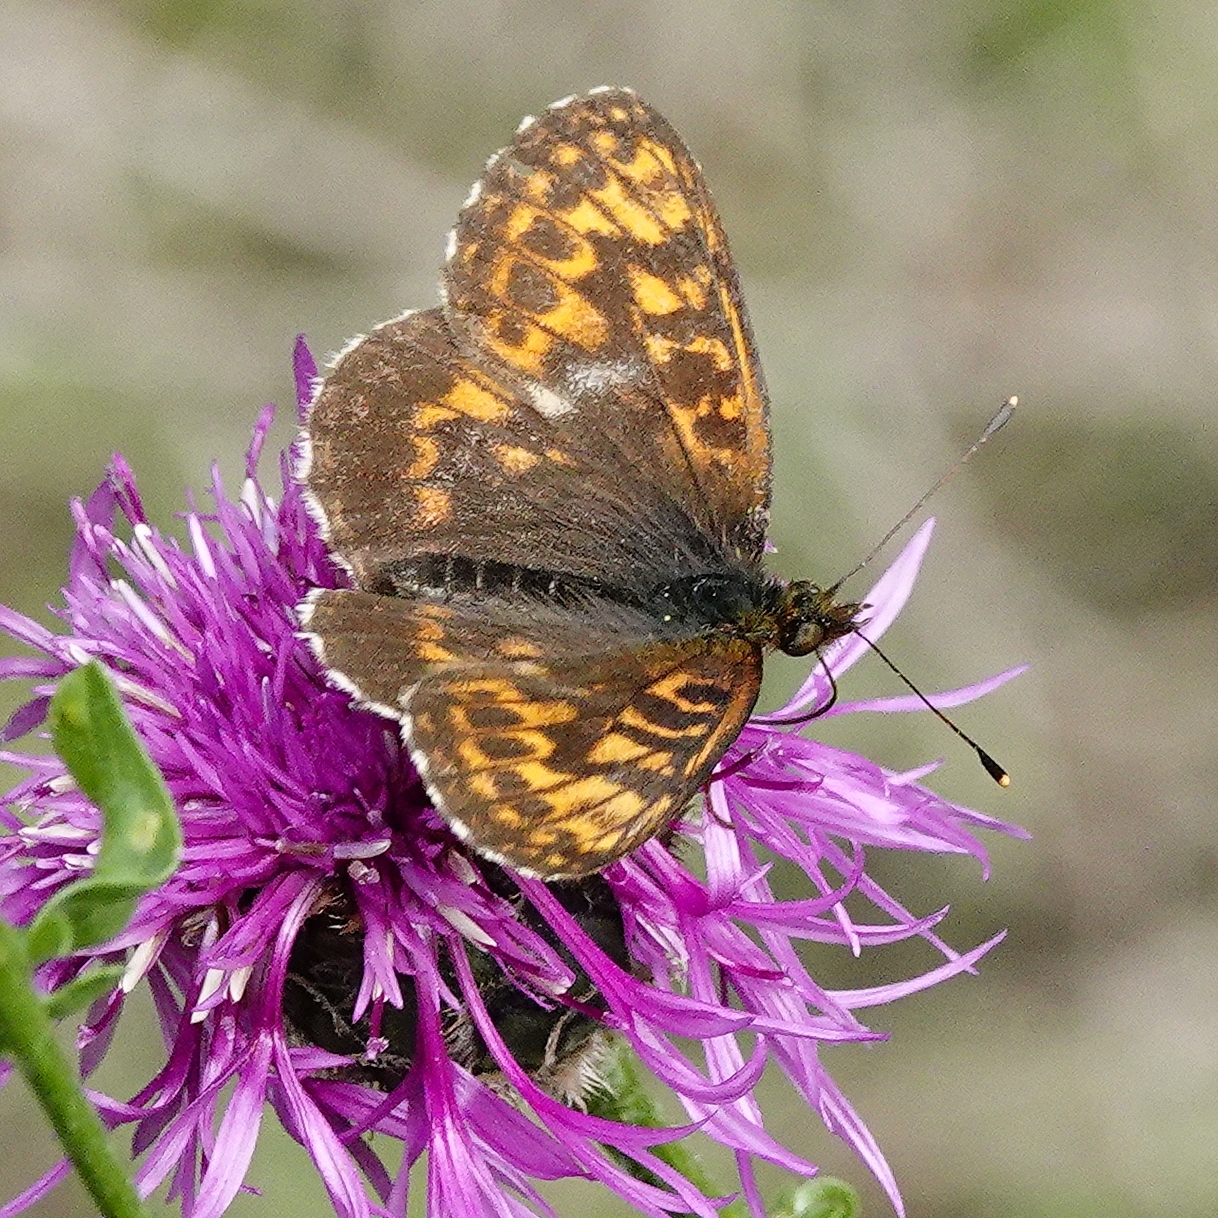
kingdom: Animalia
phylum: Arthropoda
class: Insecta
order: Lepidoptera
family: Nymphalidae
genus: Boloria
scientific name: Boloria thore
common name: Thor's fritillary
